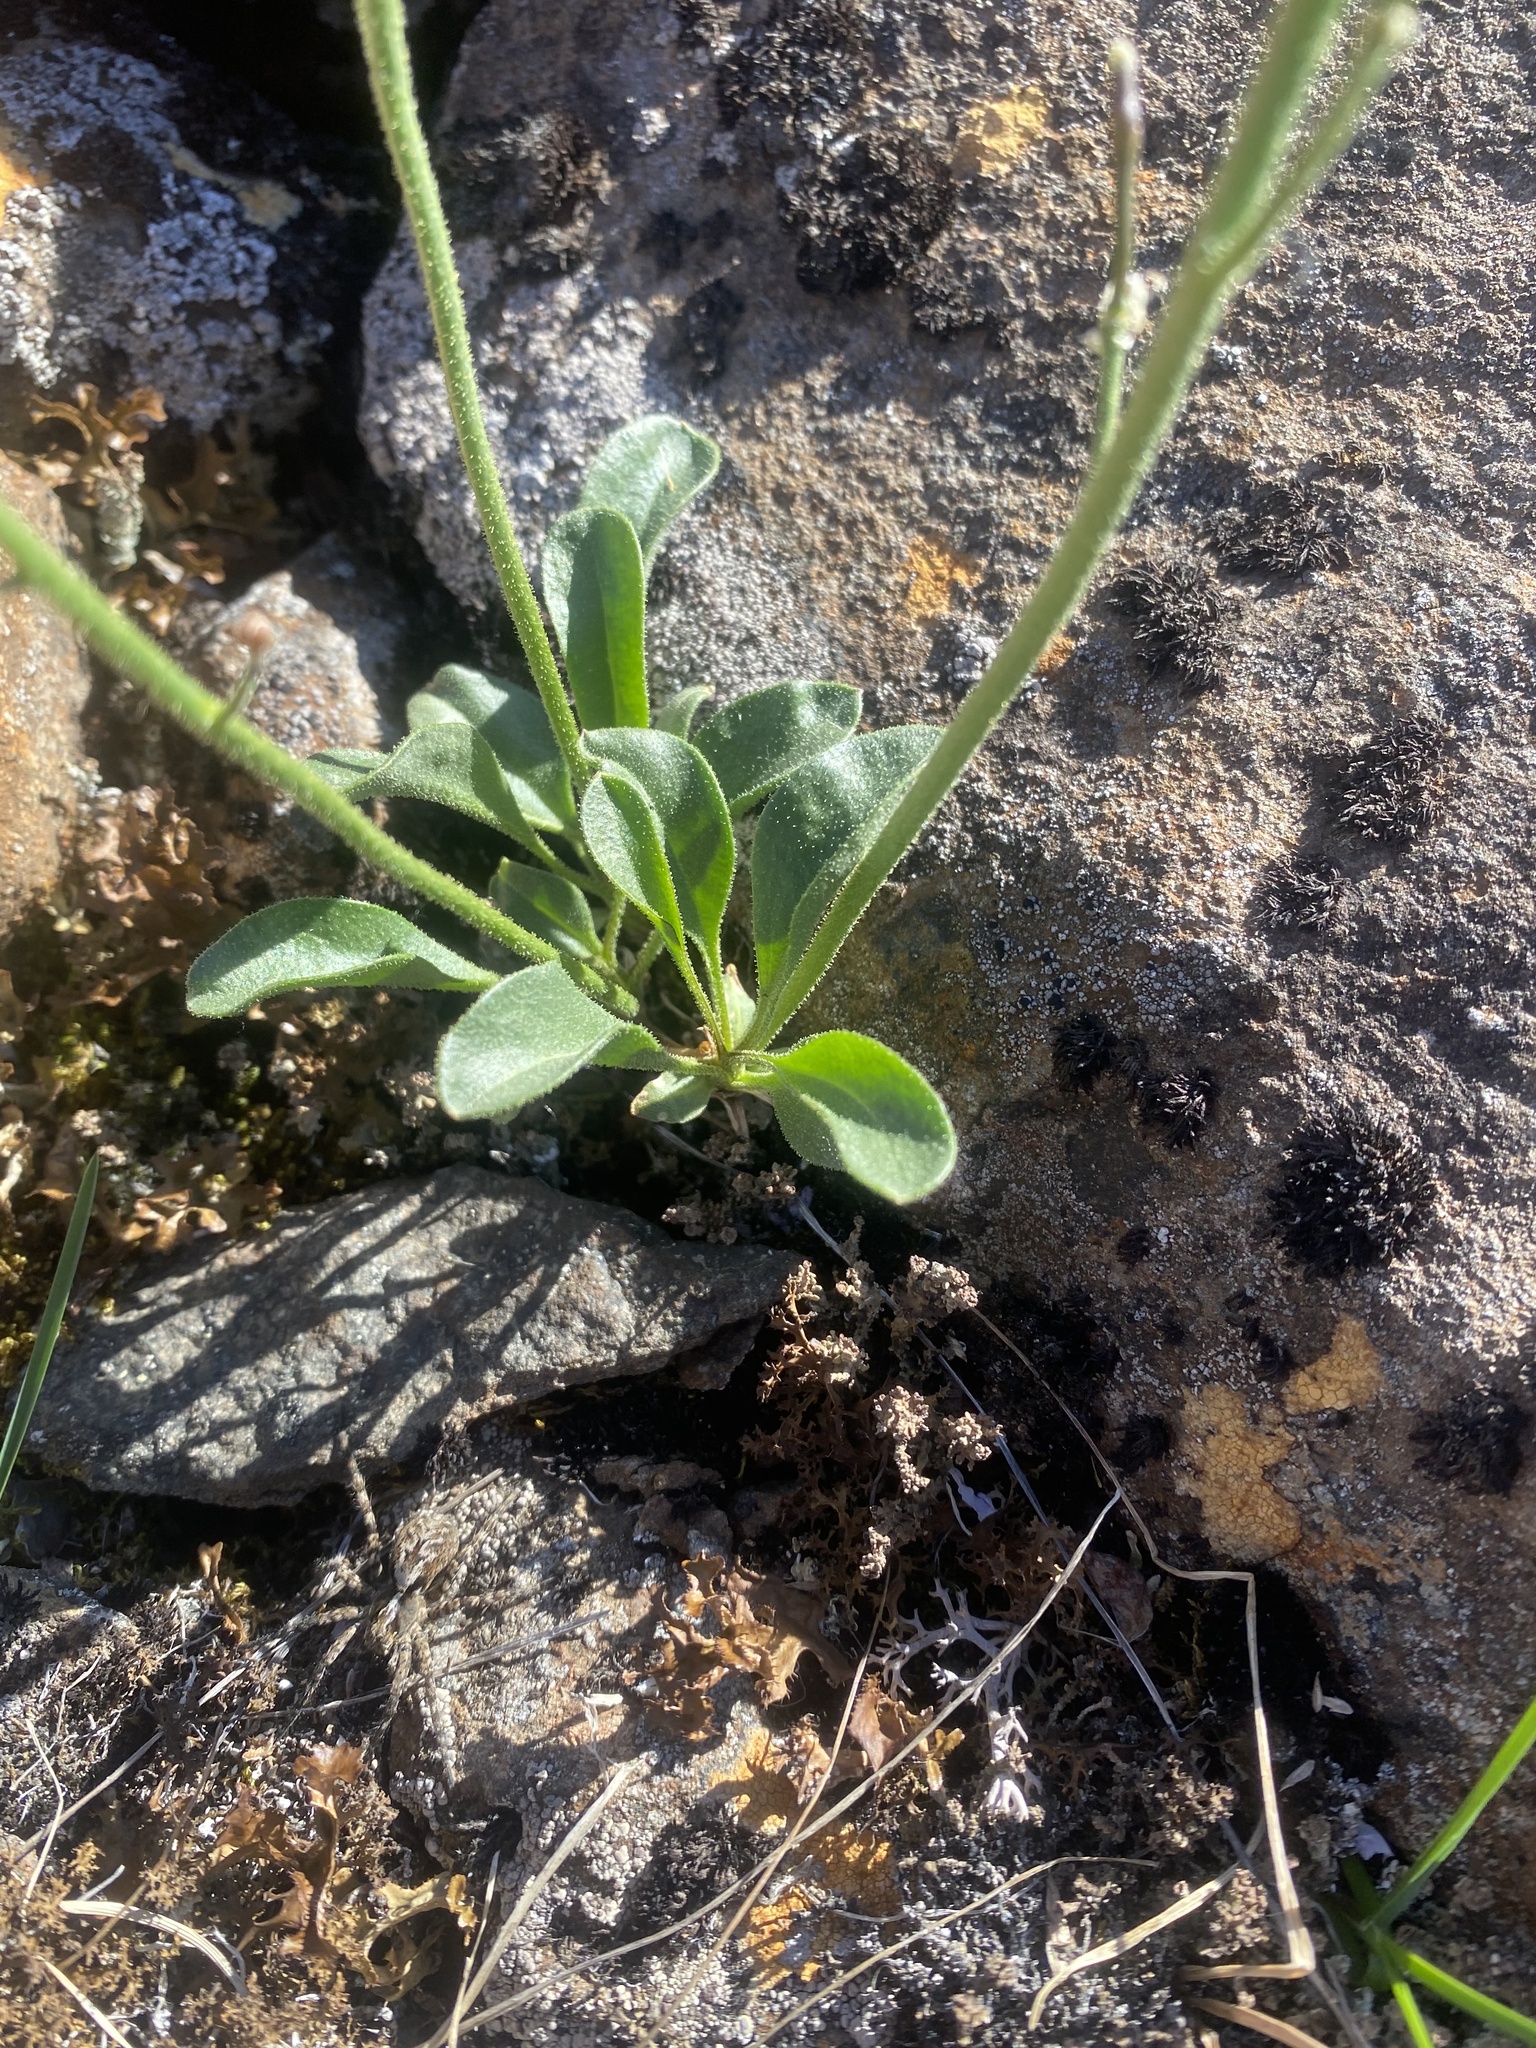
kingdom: Plantae
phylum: Tracheophyta
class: Magnoliopsida
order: Brassicales
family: Brassicaceae
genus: Parrya
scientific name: Parrya nudicaulis
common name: Naked-stemmed false wallflower
